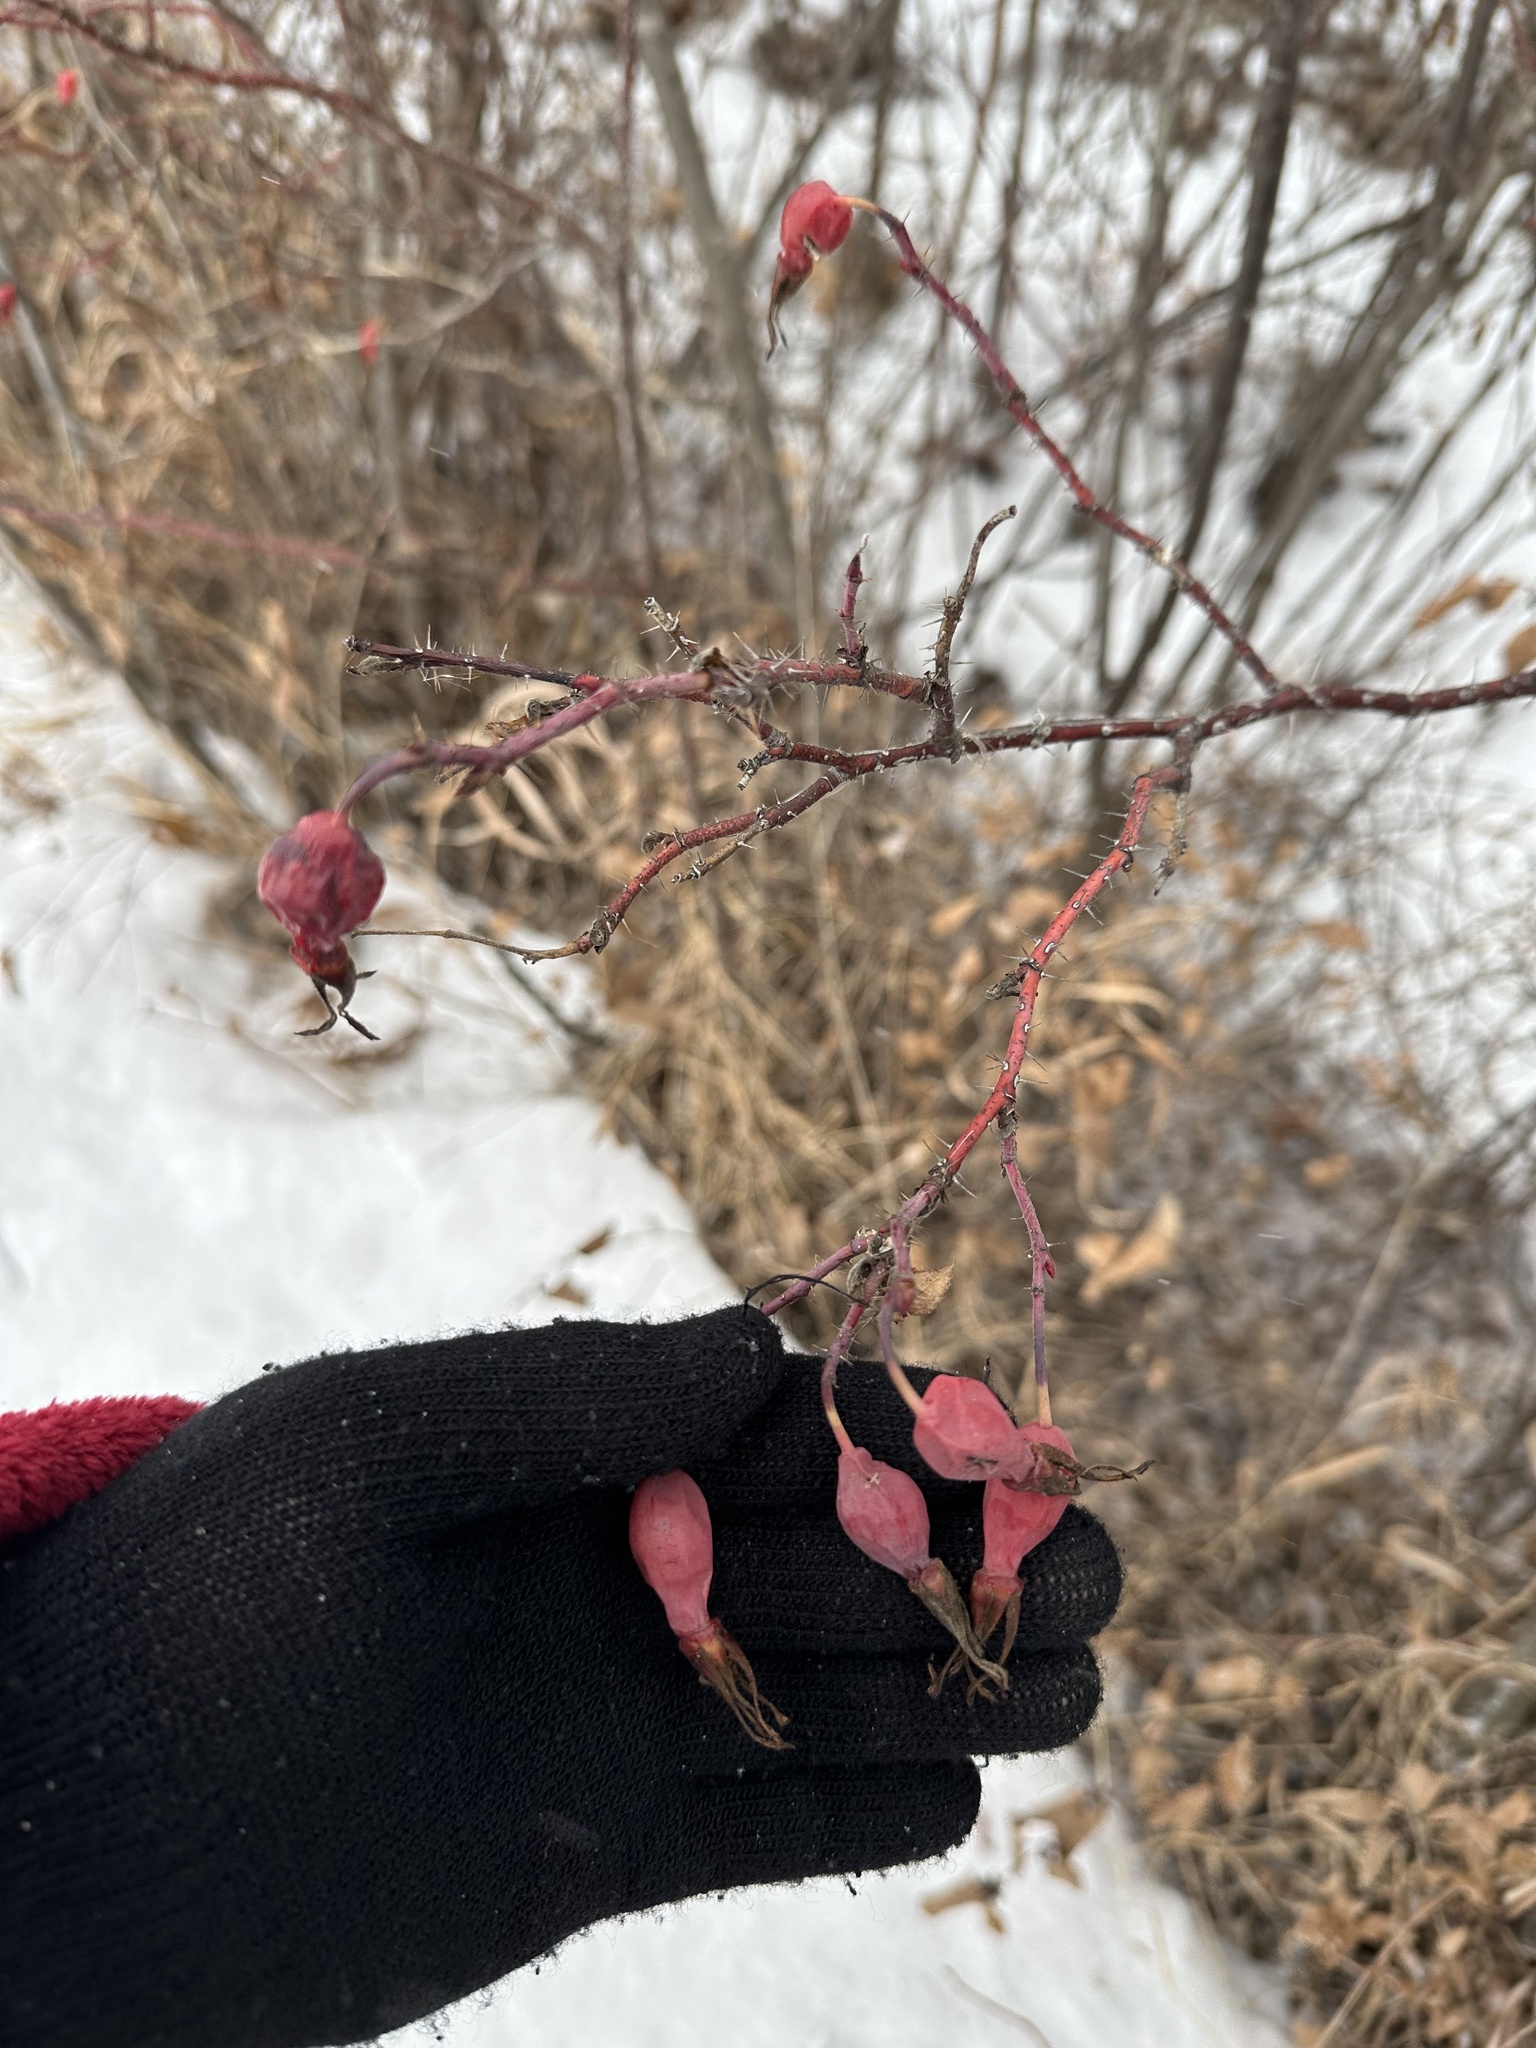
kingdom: Plantae
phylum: Tracheophyta
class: Magnoliopsida
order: Rosales
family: Rosaceae
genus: Rosa
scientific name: Rosa acicularis
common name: Prickly rose
